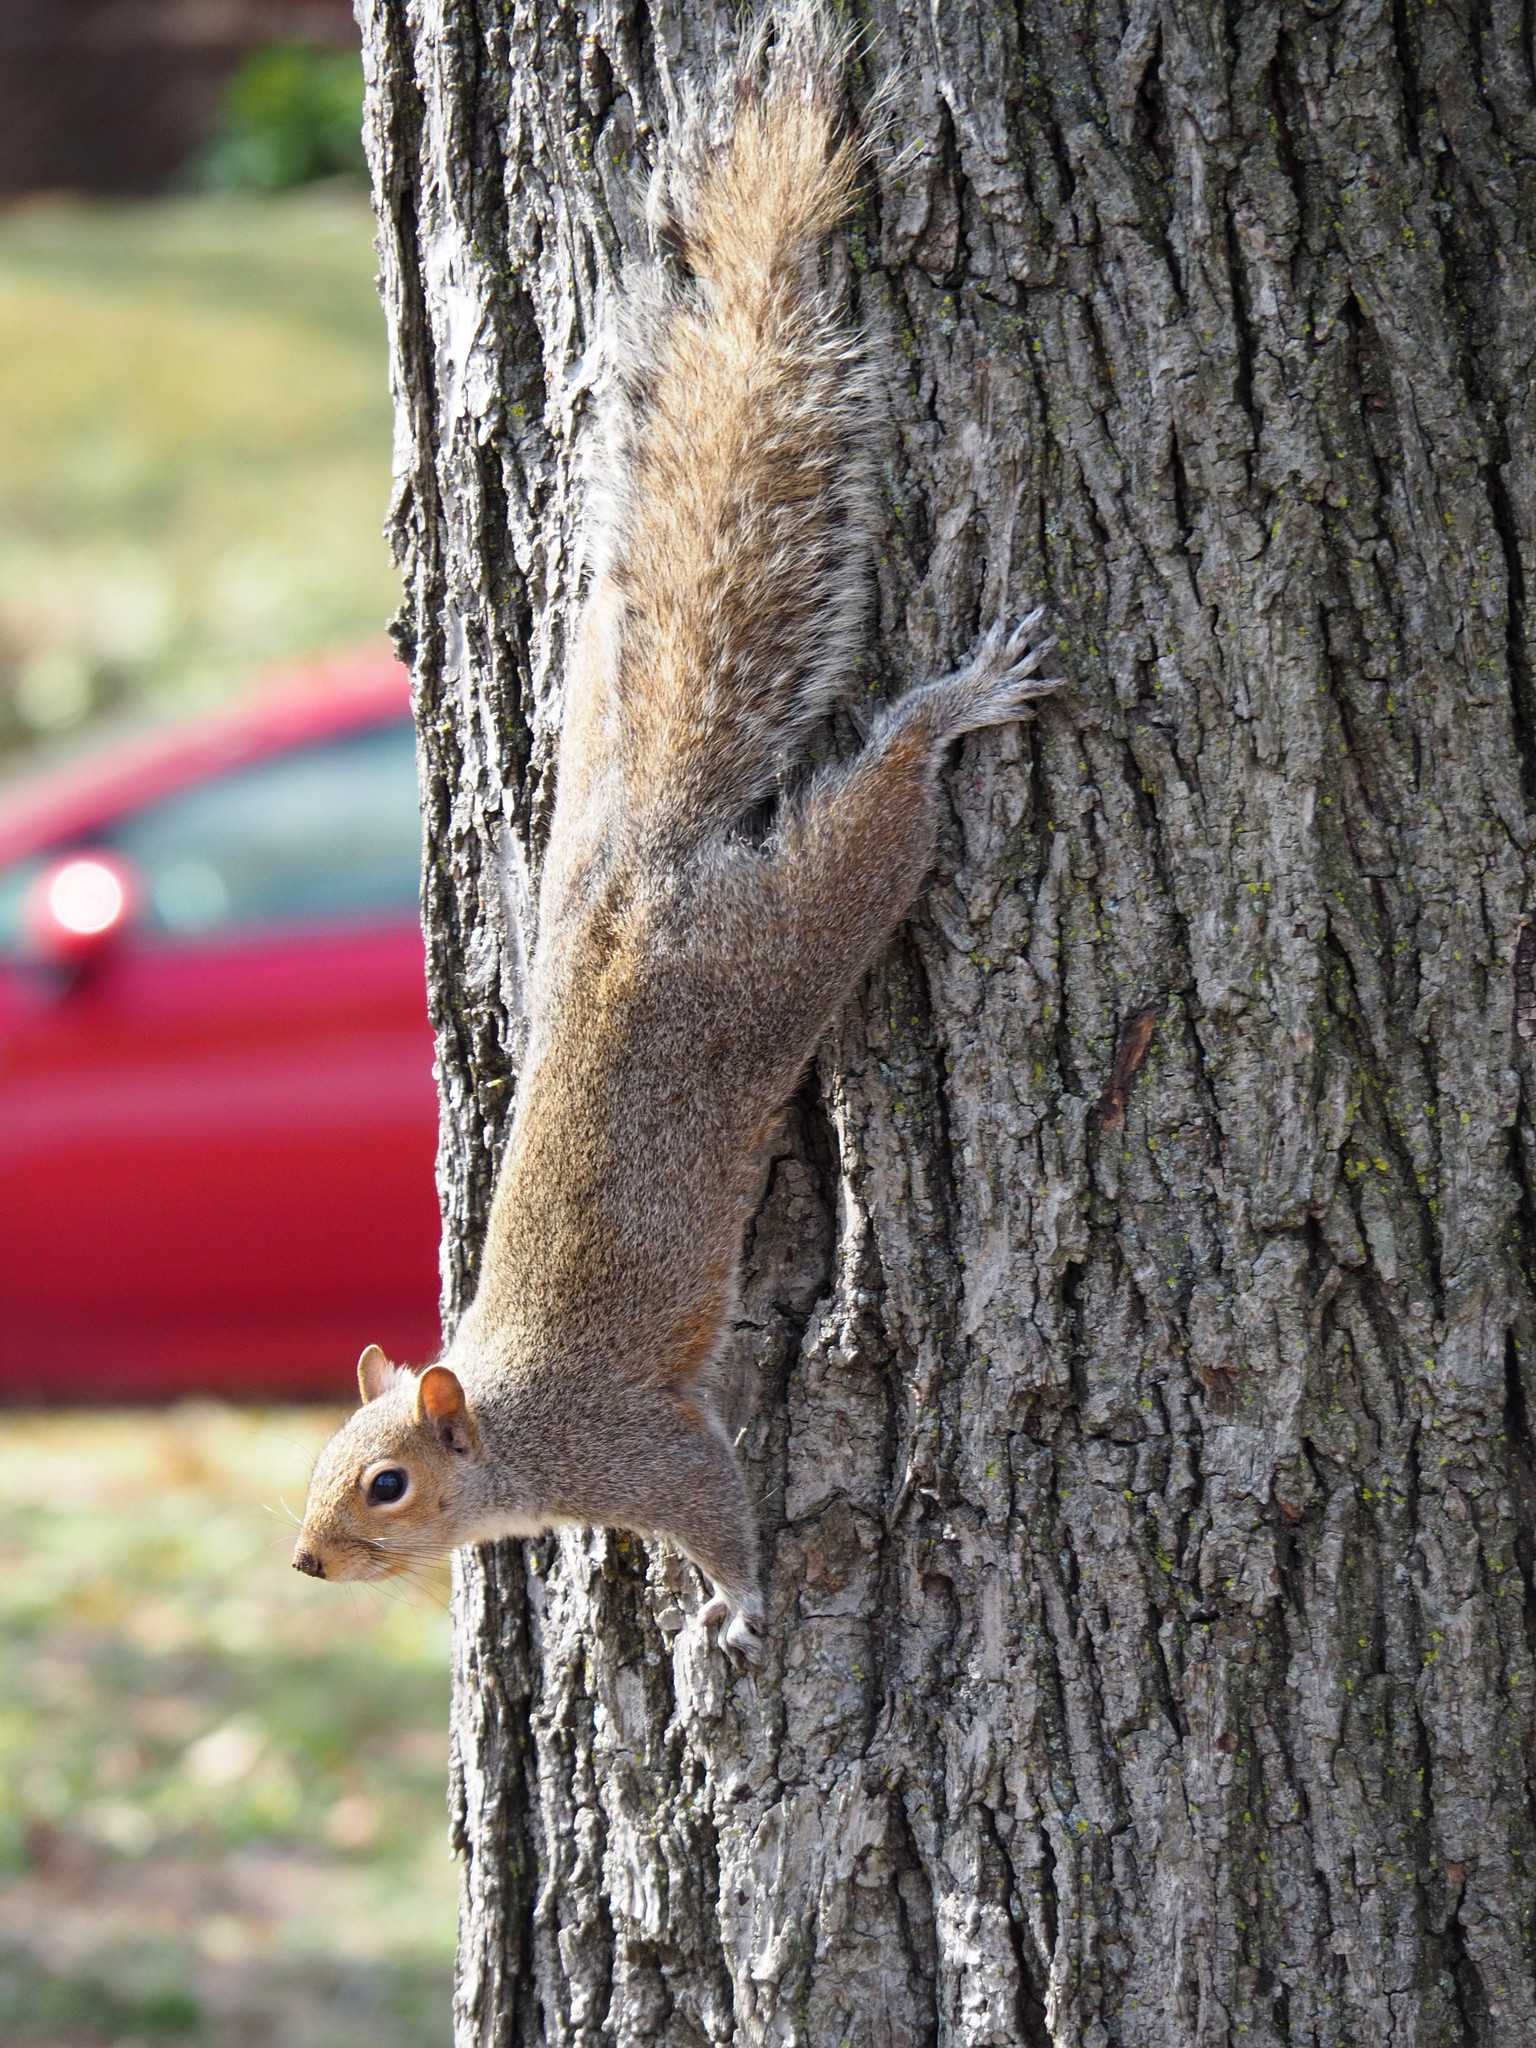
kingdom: Animalia
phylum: Chordata
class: Mammalia
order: Rodentia
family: Sciuridae
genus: Sciurus
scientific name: Sciurus carolinensis
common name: Eastern gray squirrel
